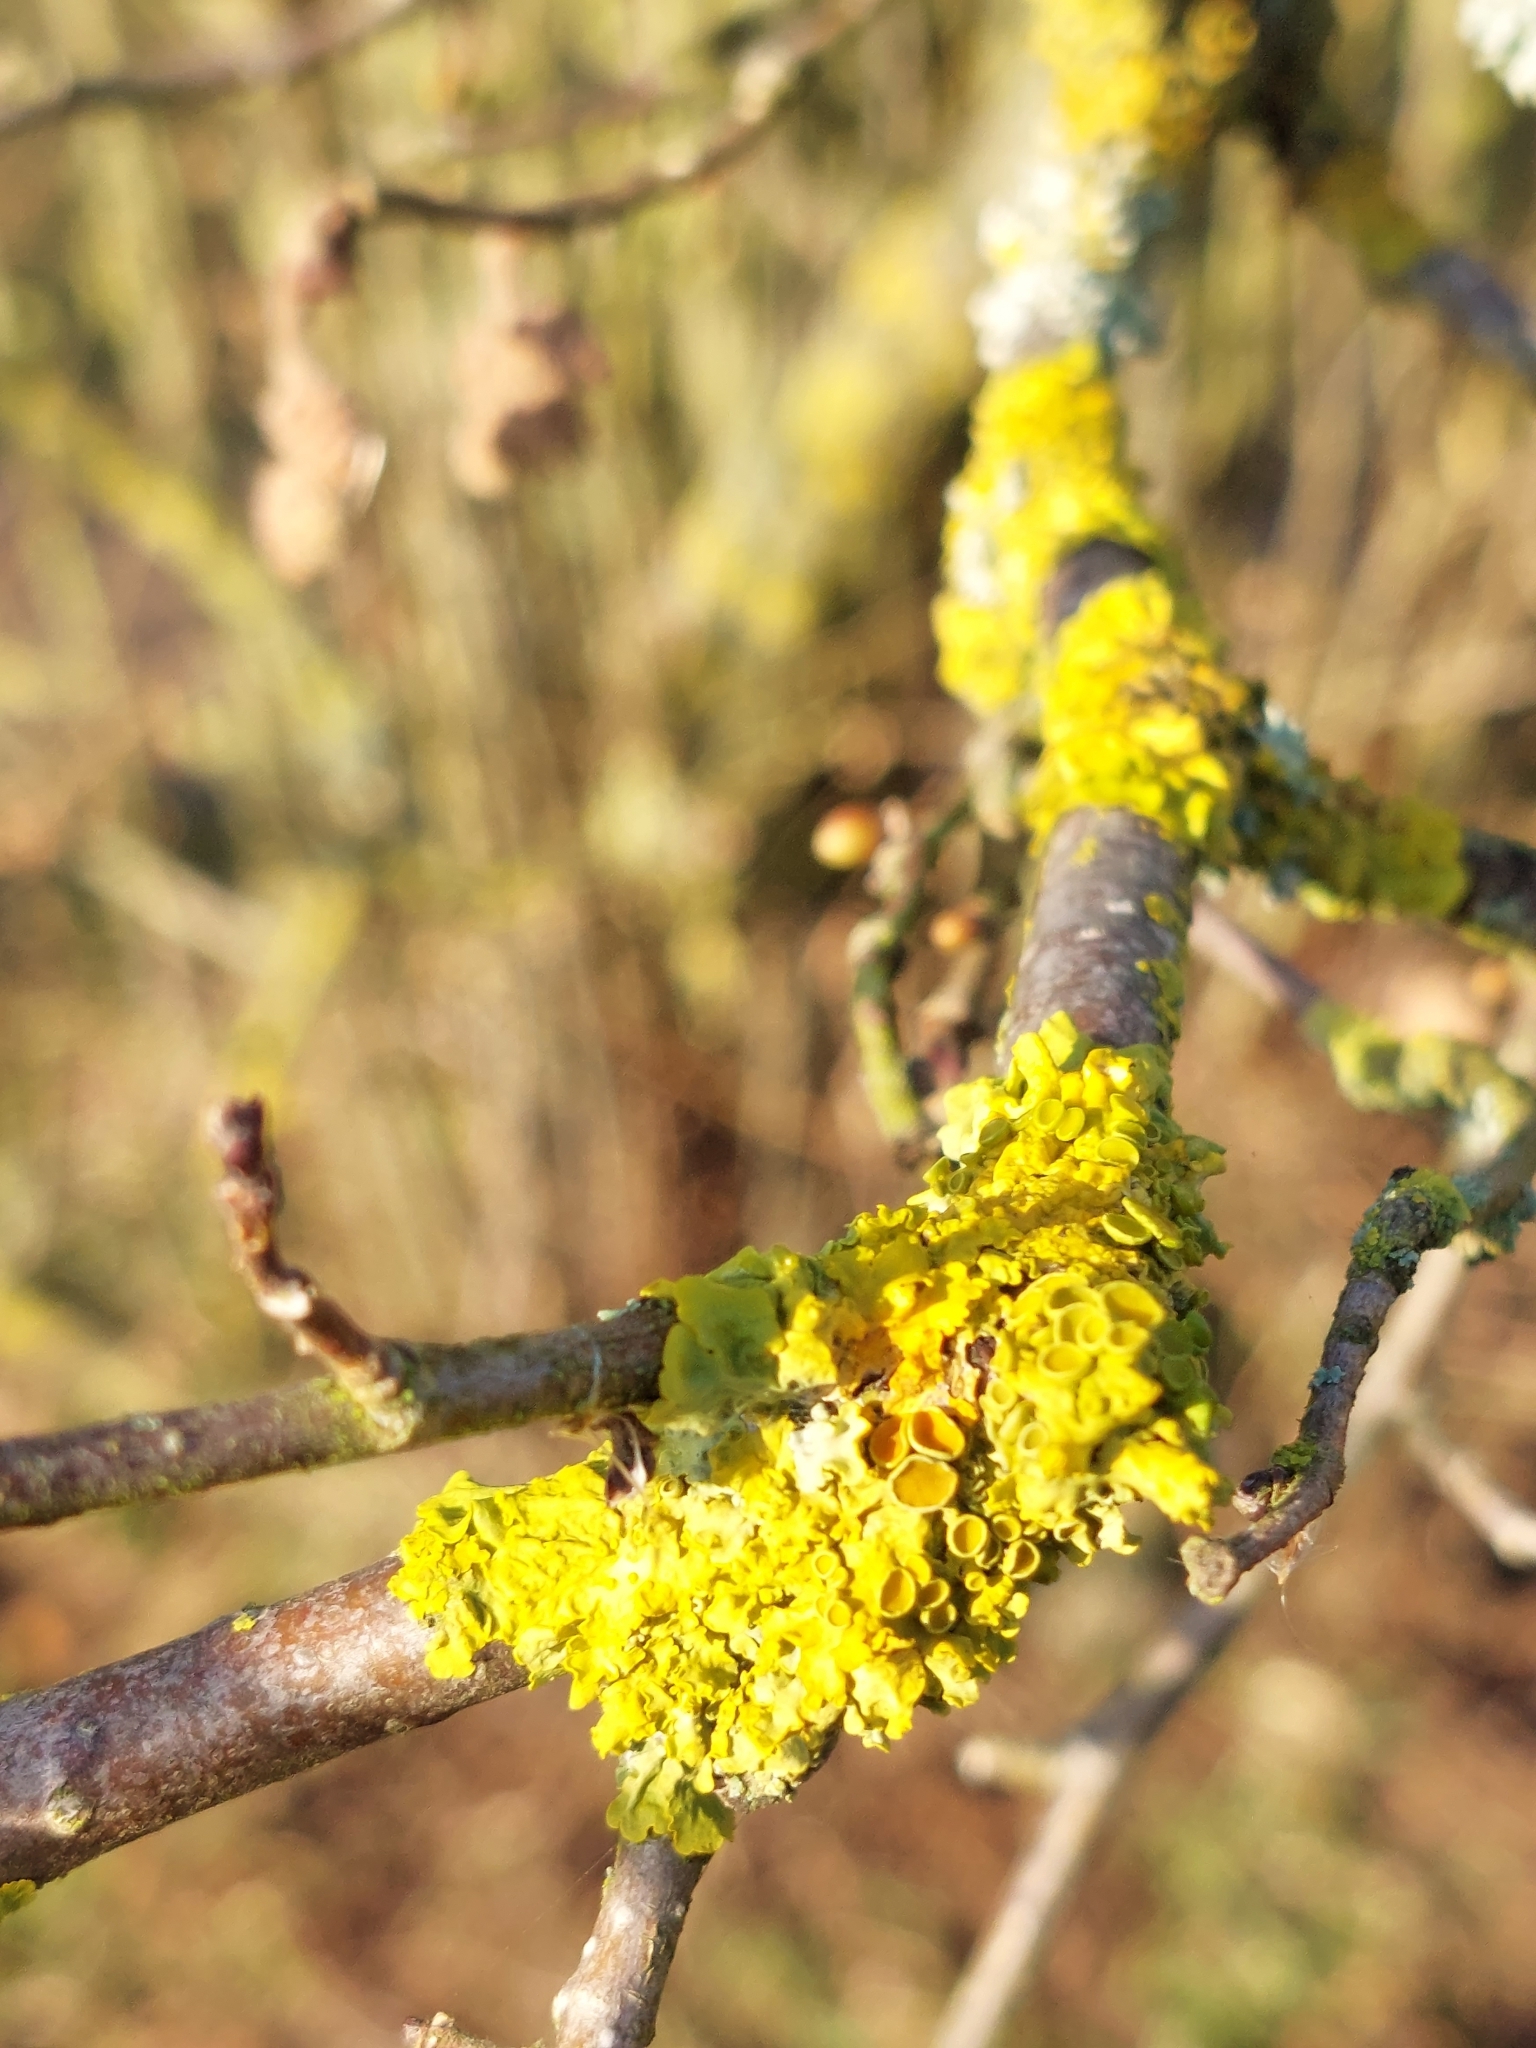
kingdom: Fungi
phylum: Ascomycota
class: Lecanoromycetes
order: Teloschistales
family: Teloschistaceae
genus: Xanthoria
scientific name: Xanthoria parietina
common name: Common orange lichen
